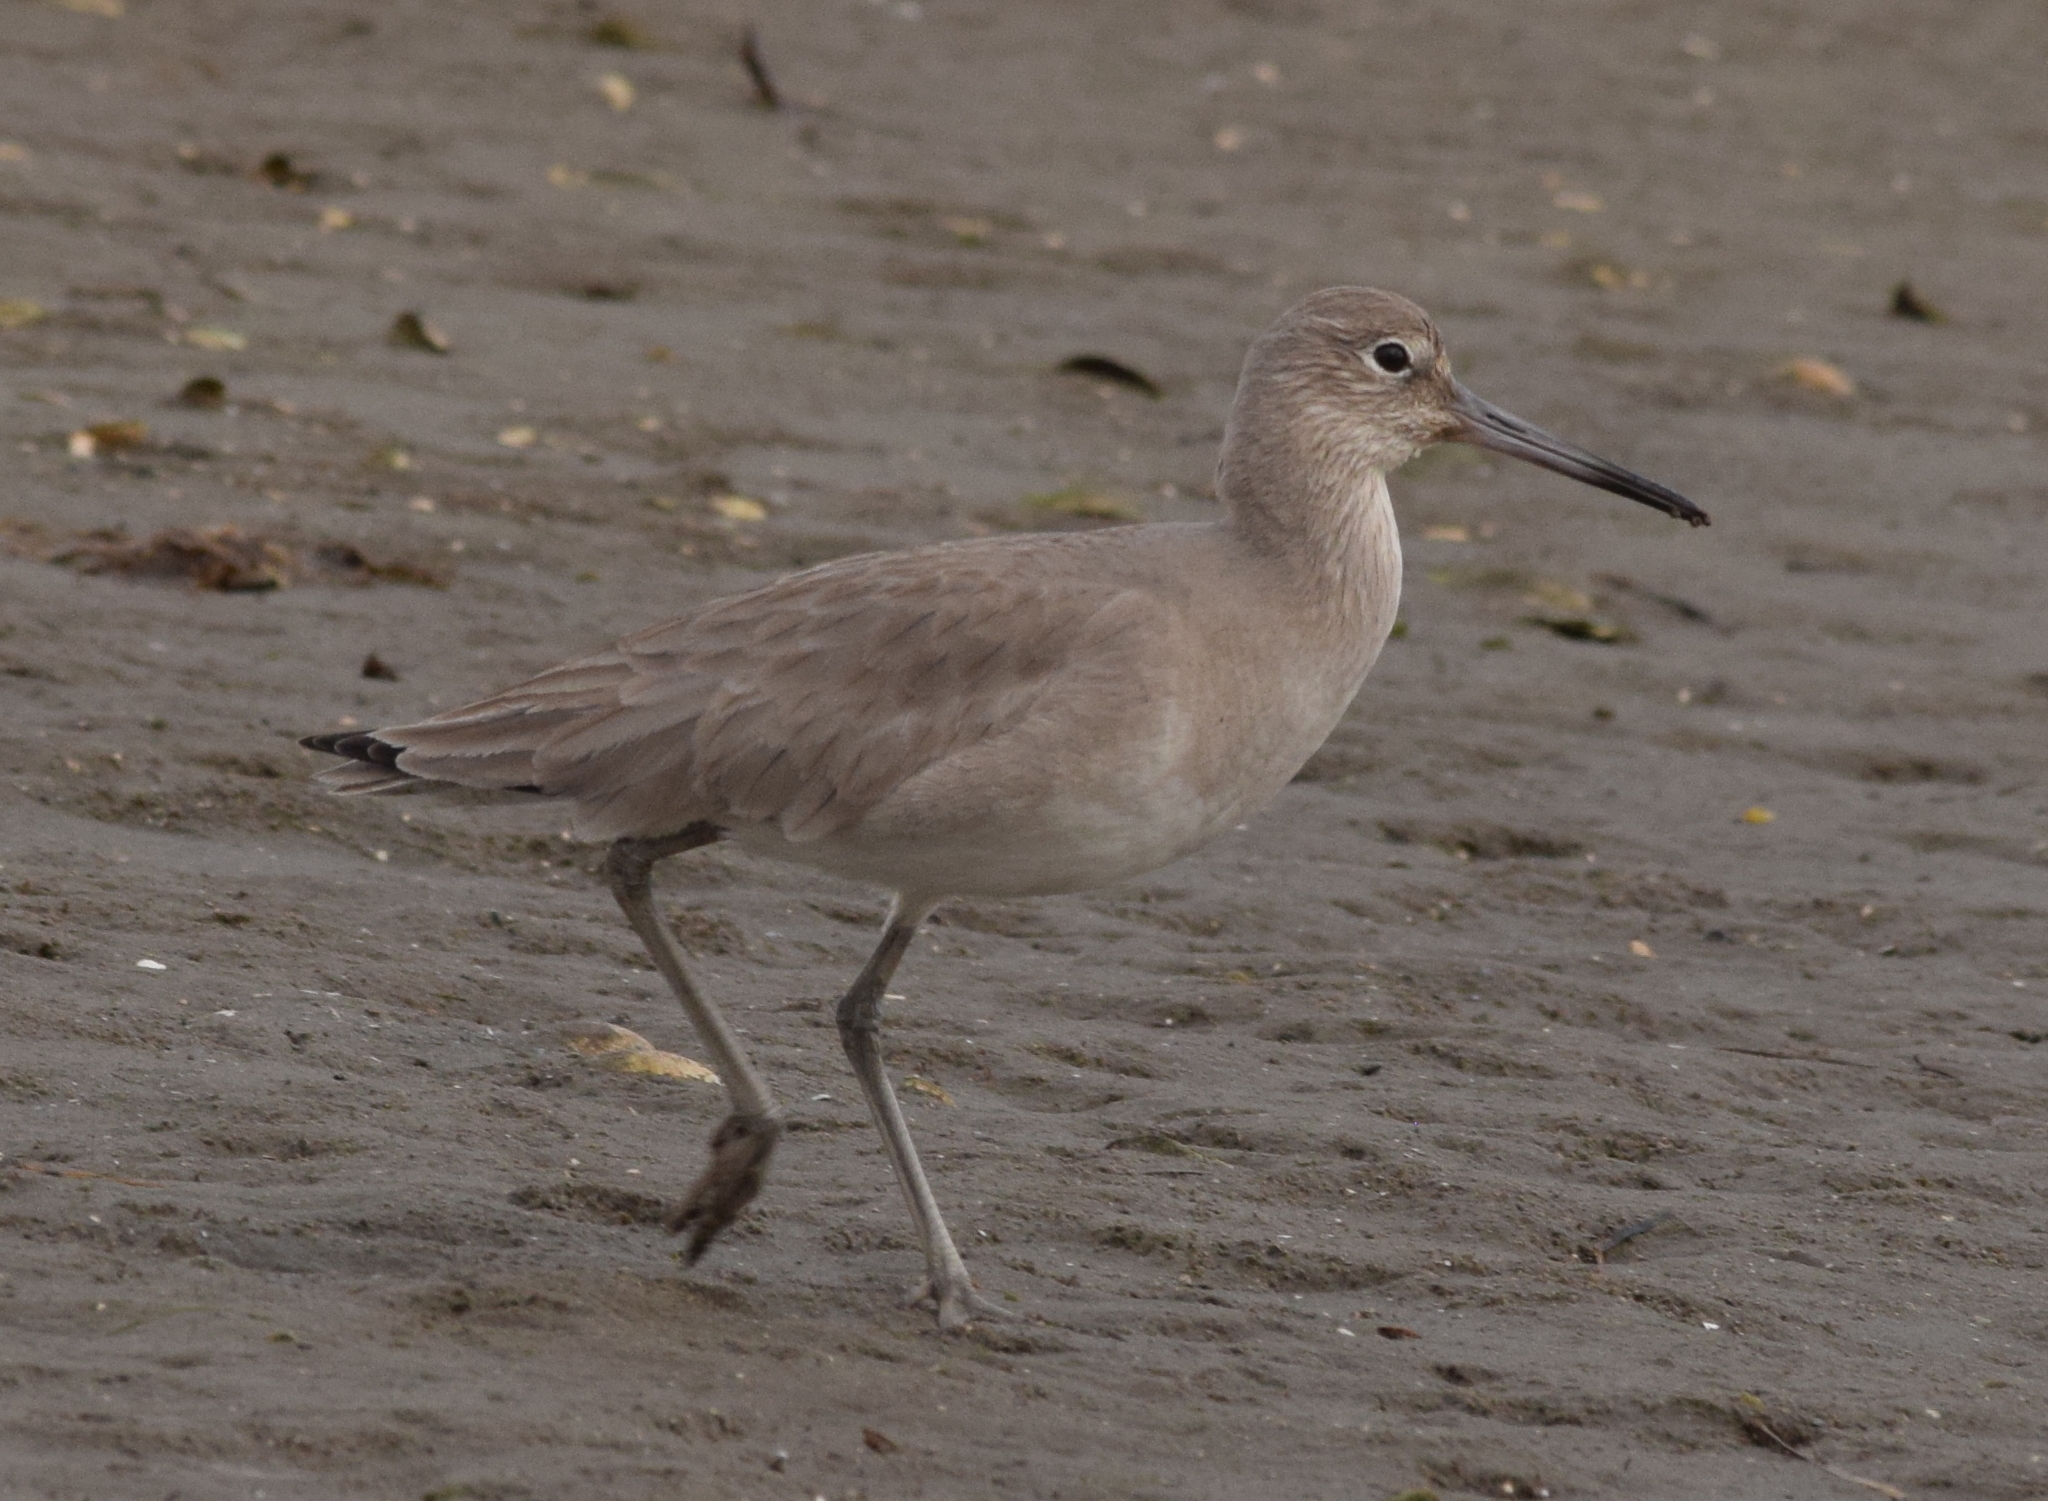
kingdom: Animalia
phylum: Chordata
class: Aves
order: Charadriiformes
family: Scolopacidae
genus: Tringa
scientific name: Tringa semipalmata
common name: Willet
